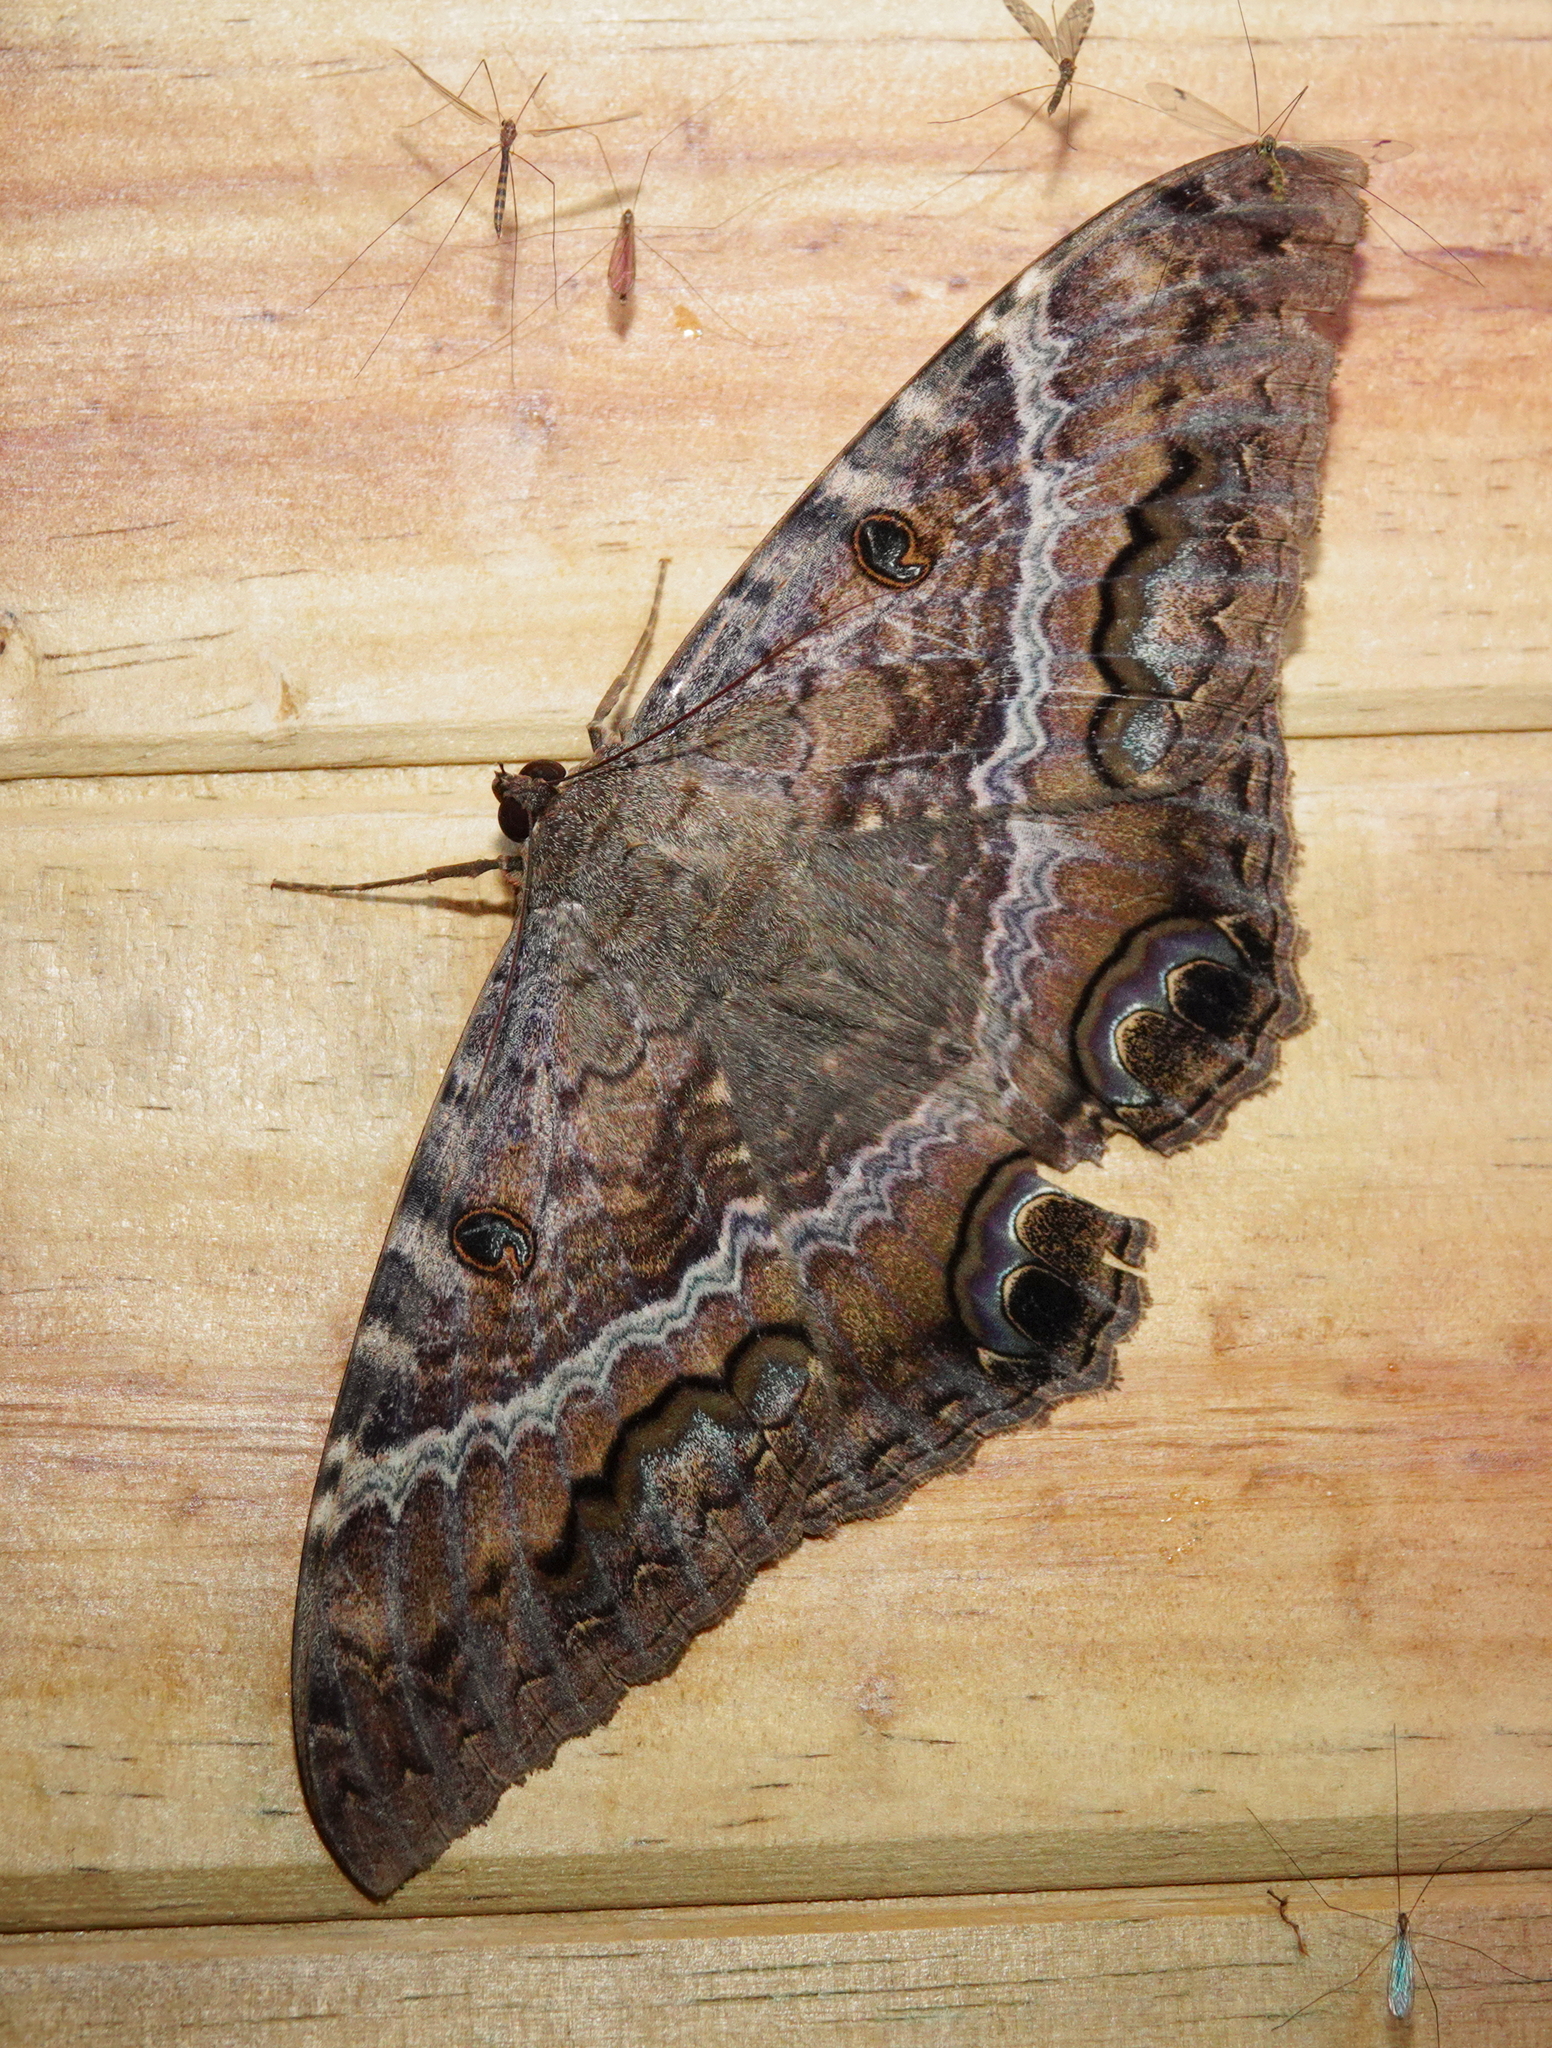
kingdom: Animalia
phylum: Arthropoda
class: Insecta
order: Lepidoptera
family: Erebidae
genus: Ascalapha
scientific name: Ascalapha odorata
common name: Black witch
